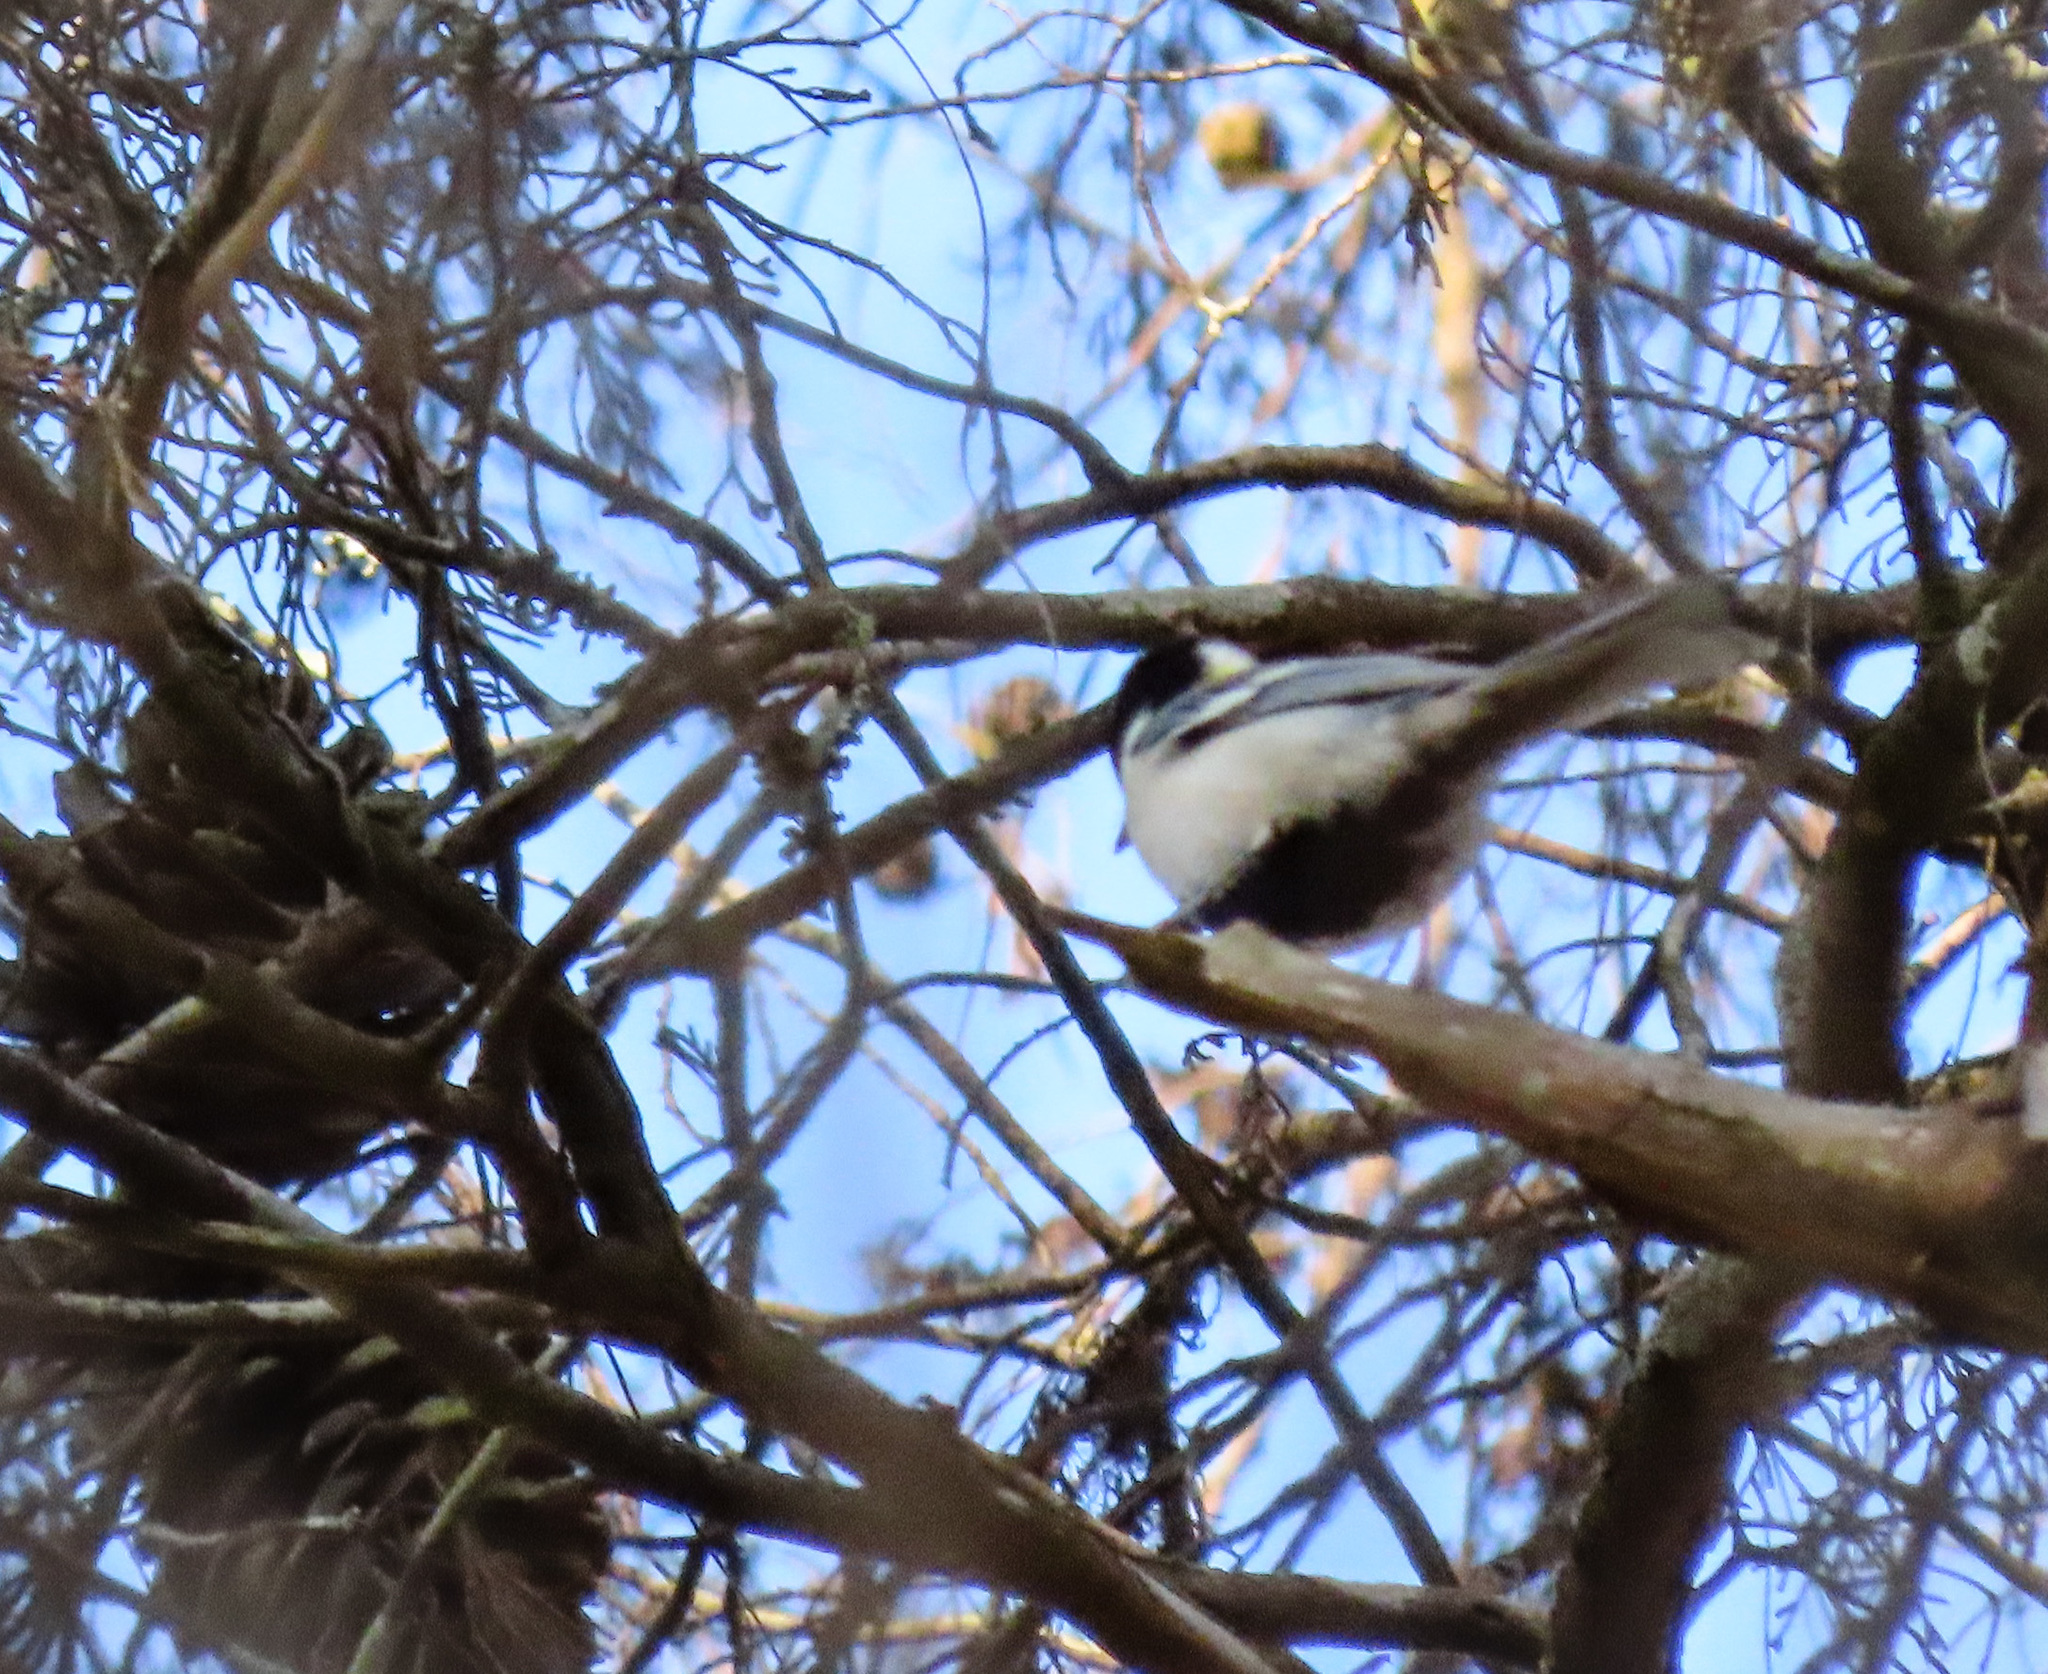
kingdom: Animalia
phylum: Chordata
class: Aves
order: Passeriformes
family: Paridae
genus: Parus
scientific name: Parus minor
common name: Japanese tit
